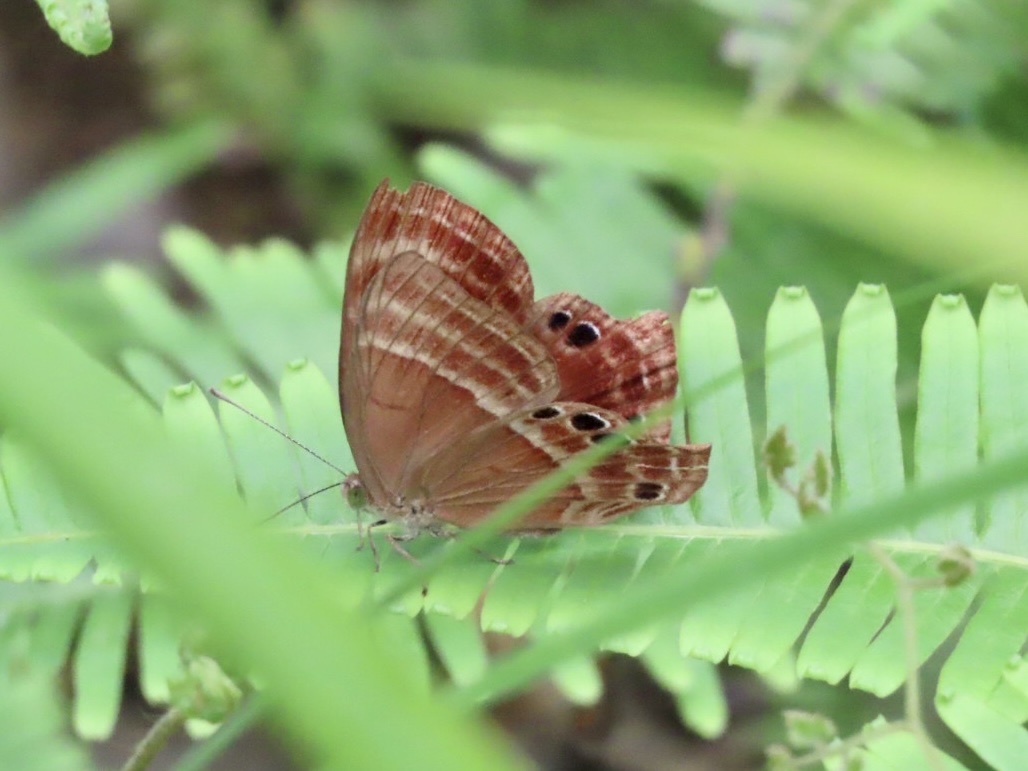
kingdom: Animalia
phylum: Arthropoda
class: Insecta
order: Lepidoptera
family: Lycaenidae
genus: Abisara
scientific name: Abisara echeria
